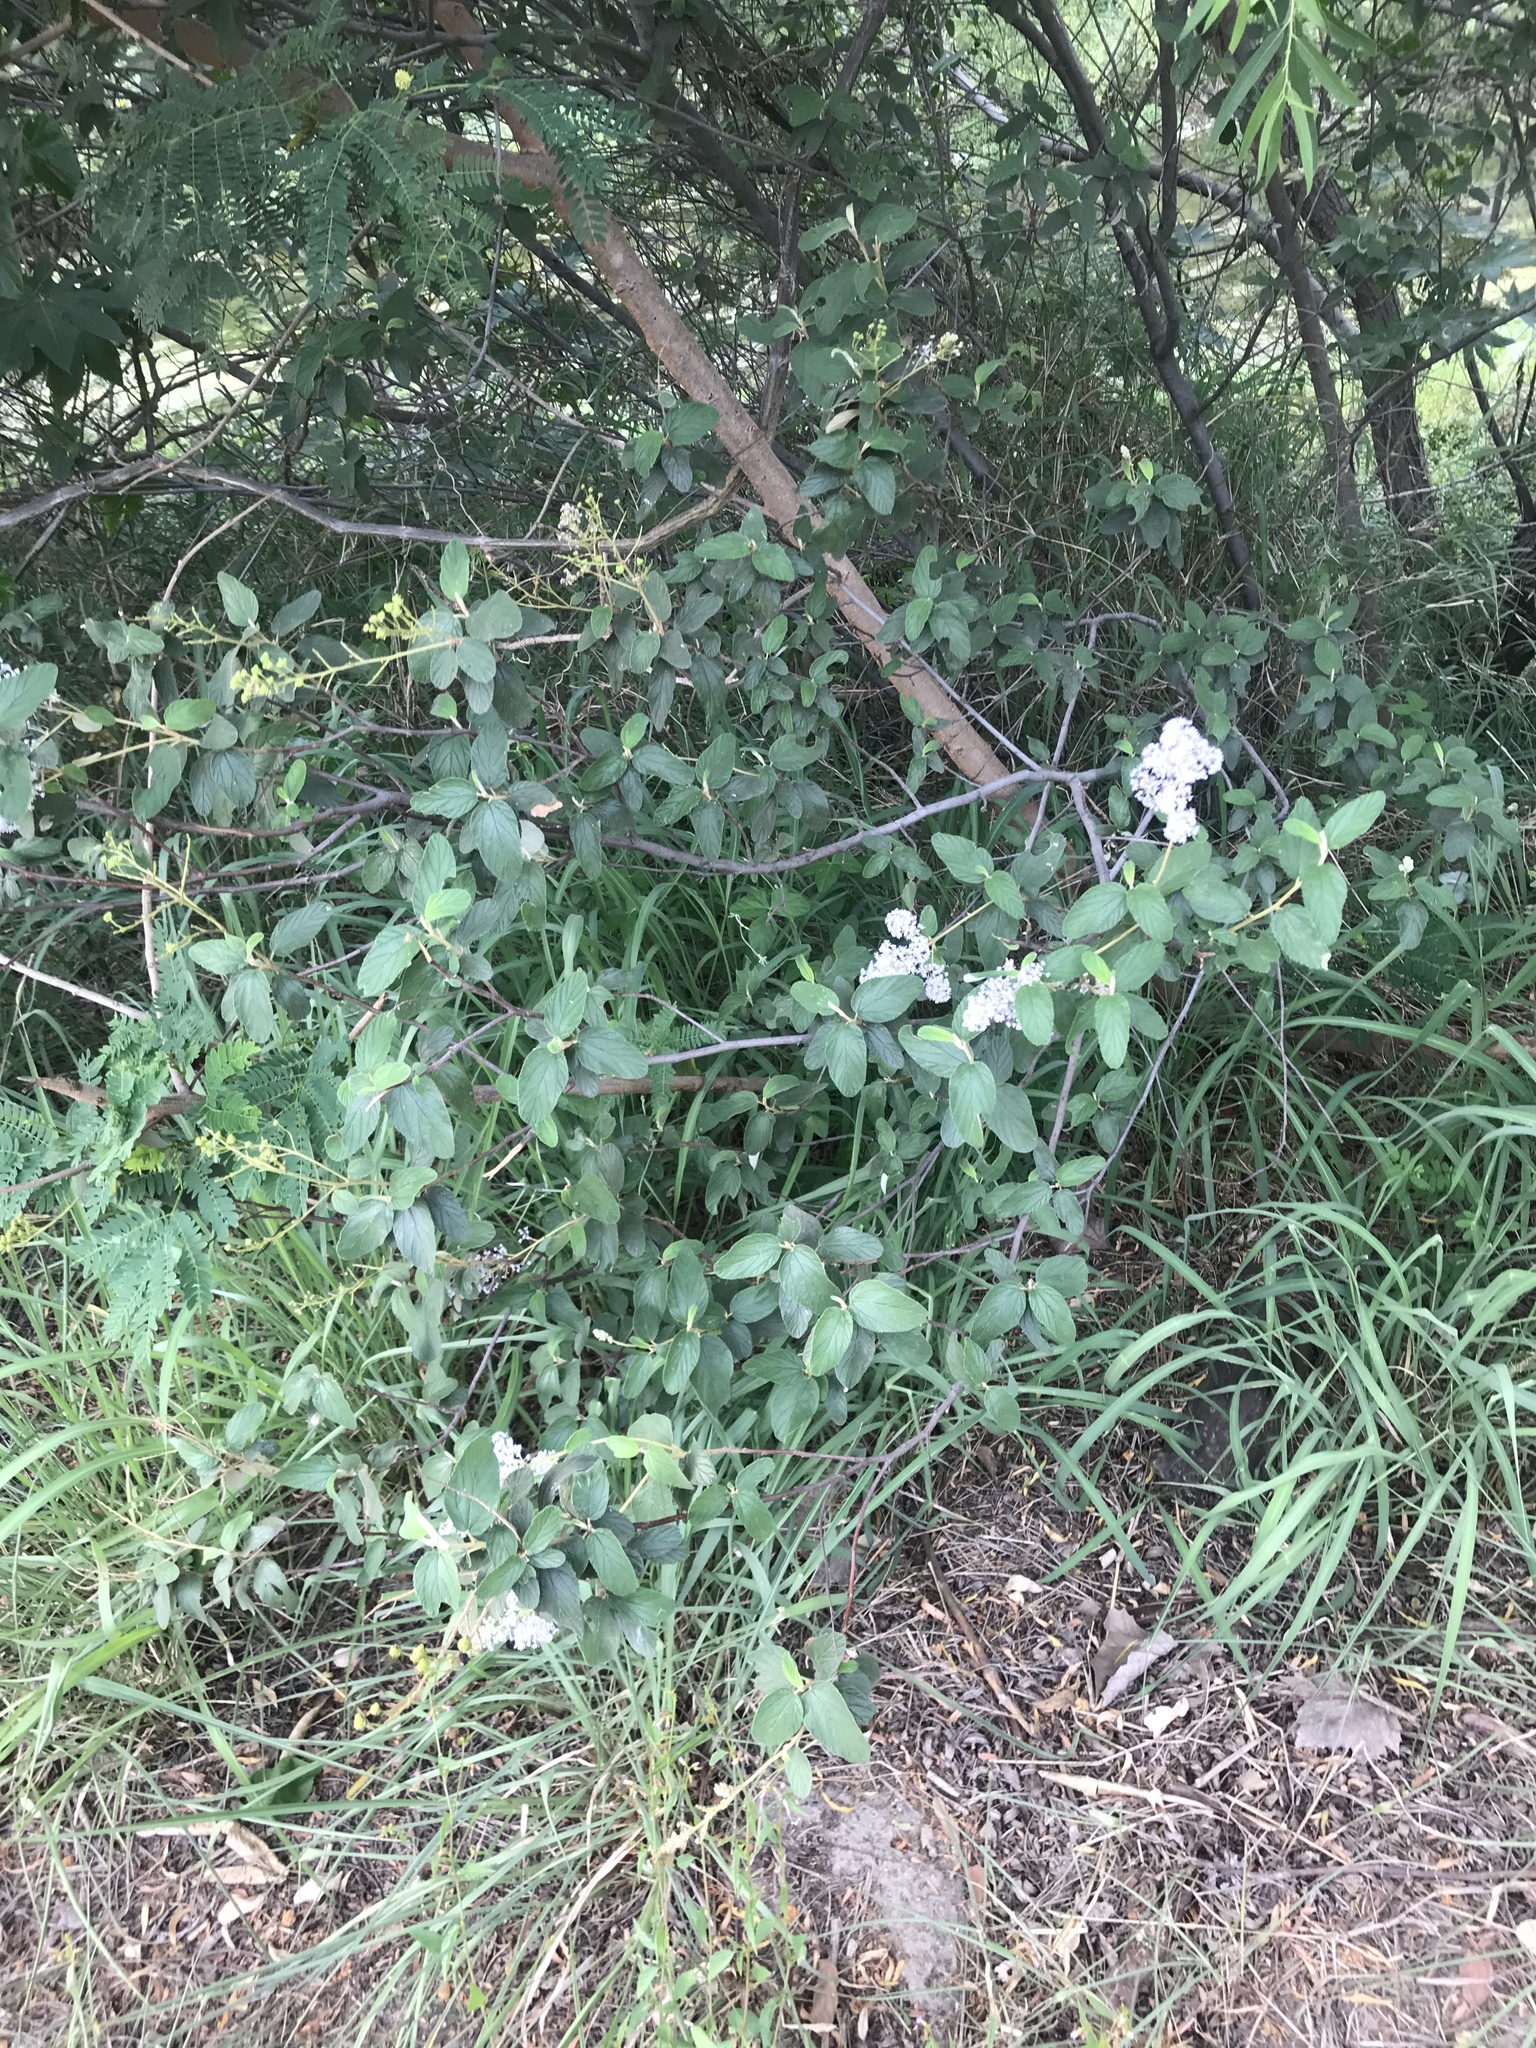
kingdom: Plantae
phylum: Tracheophyta
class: Magnoliopsida
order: Rosales
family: Rhamnaceae
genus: Ceanothus
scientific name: Ceanothus caeruleus
